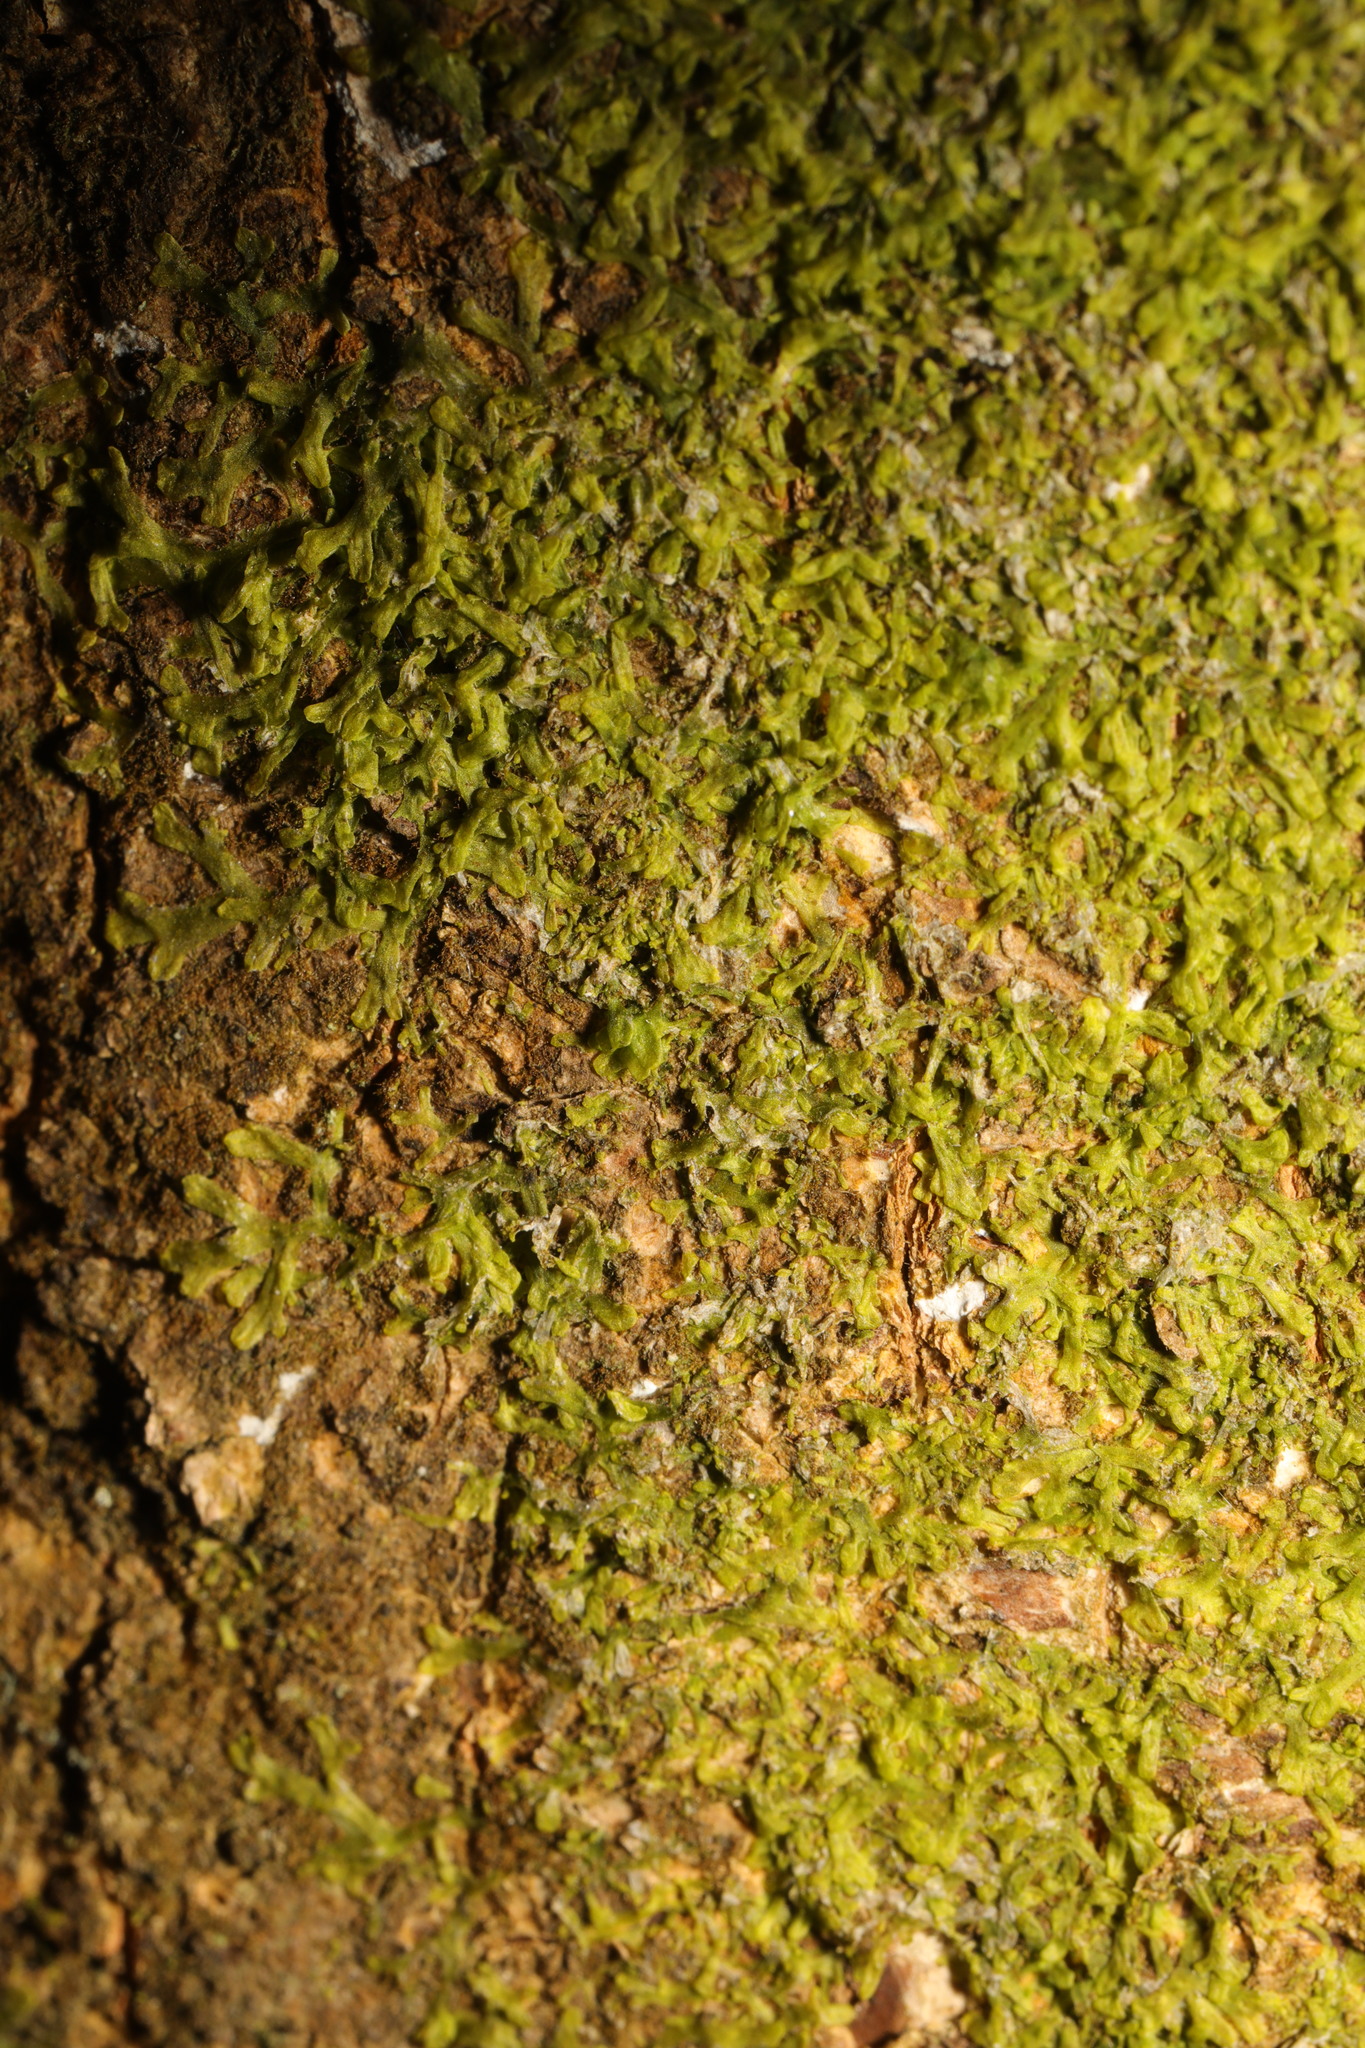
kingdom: Plantae
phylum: Marchantiophyta
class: Jungermanniopsida
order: Metzgeriales
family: Metzgeriaceae
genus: Metzgeria
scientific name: Metzgeria furcata
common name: Forked veilwort
